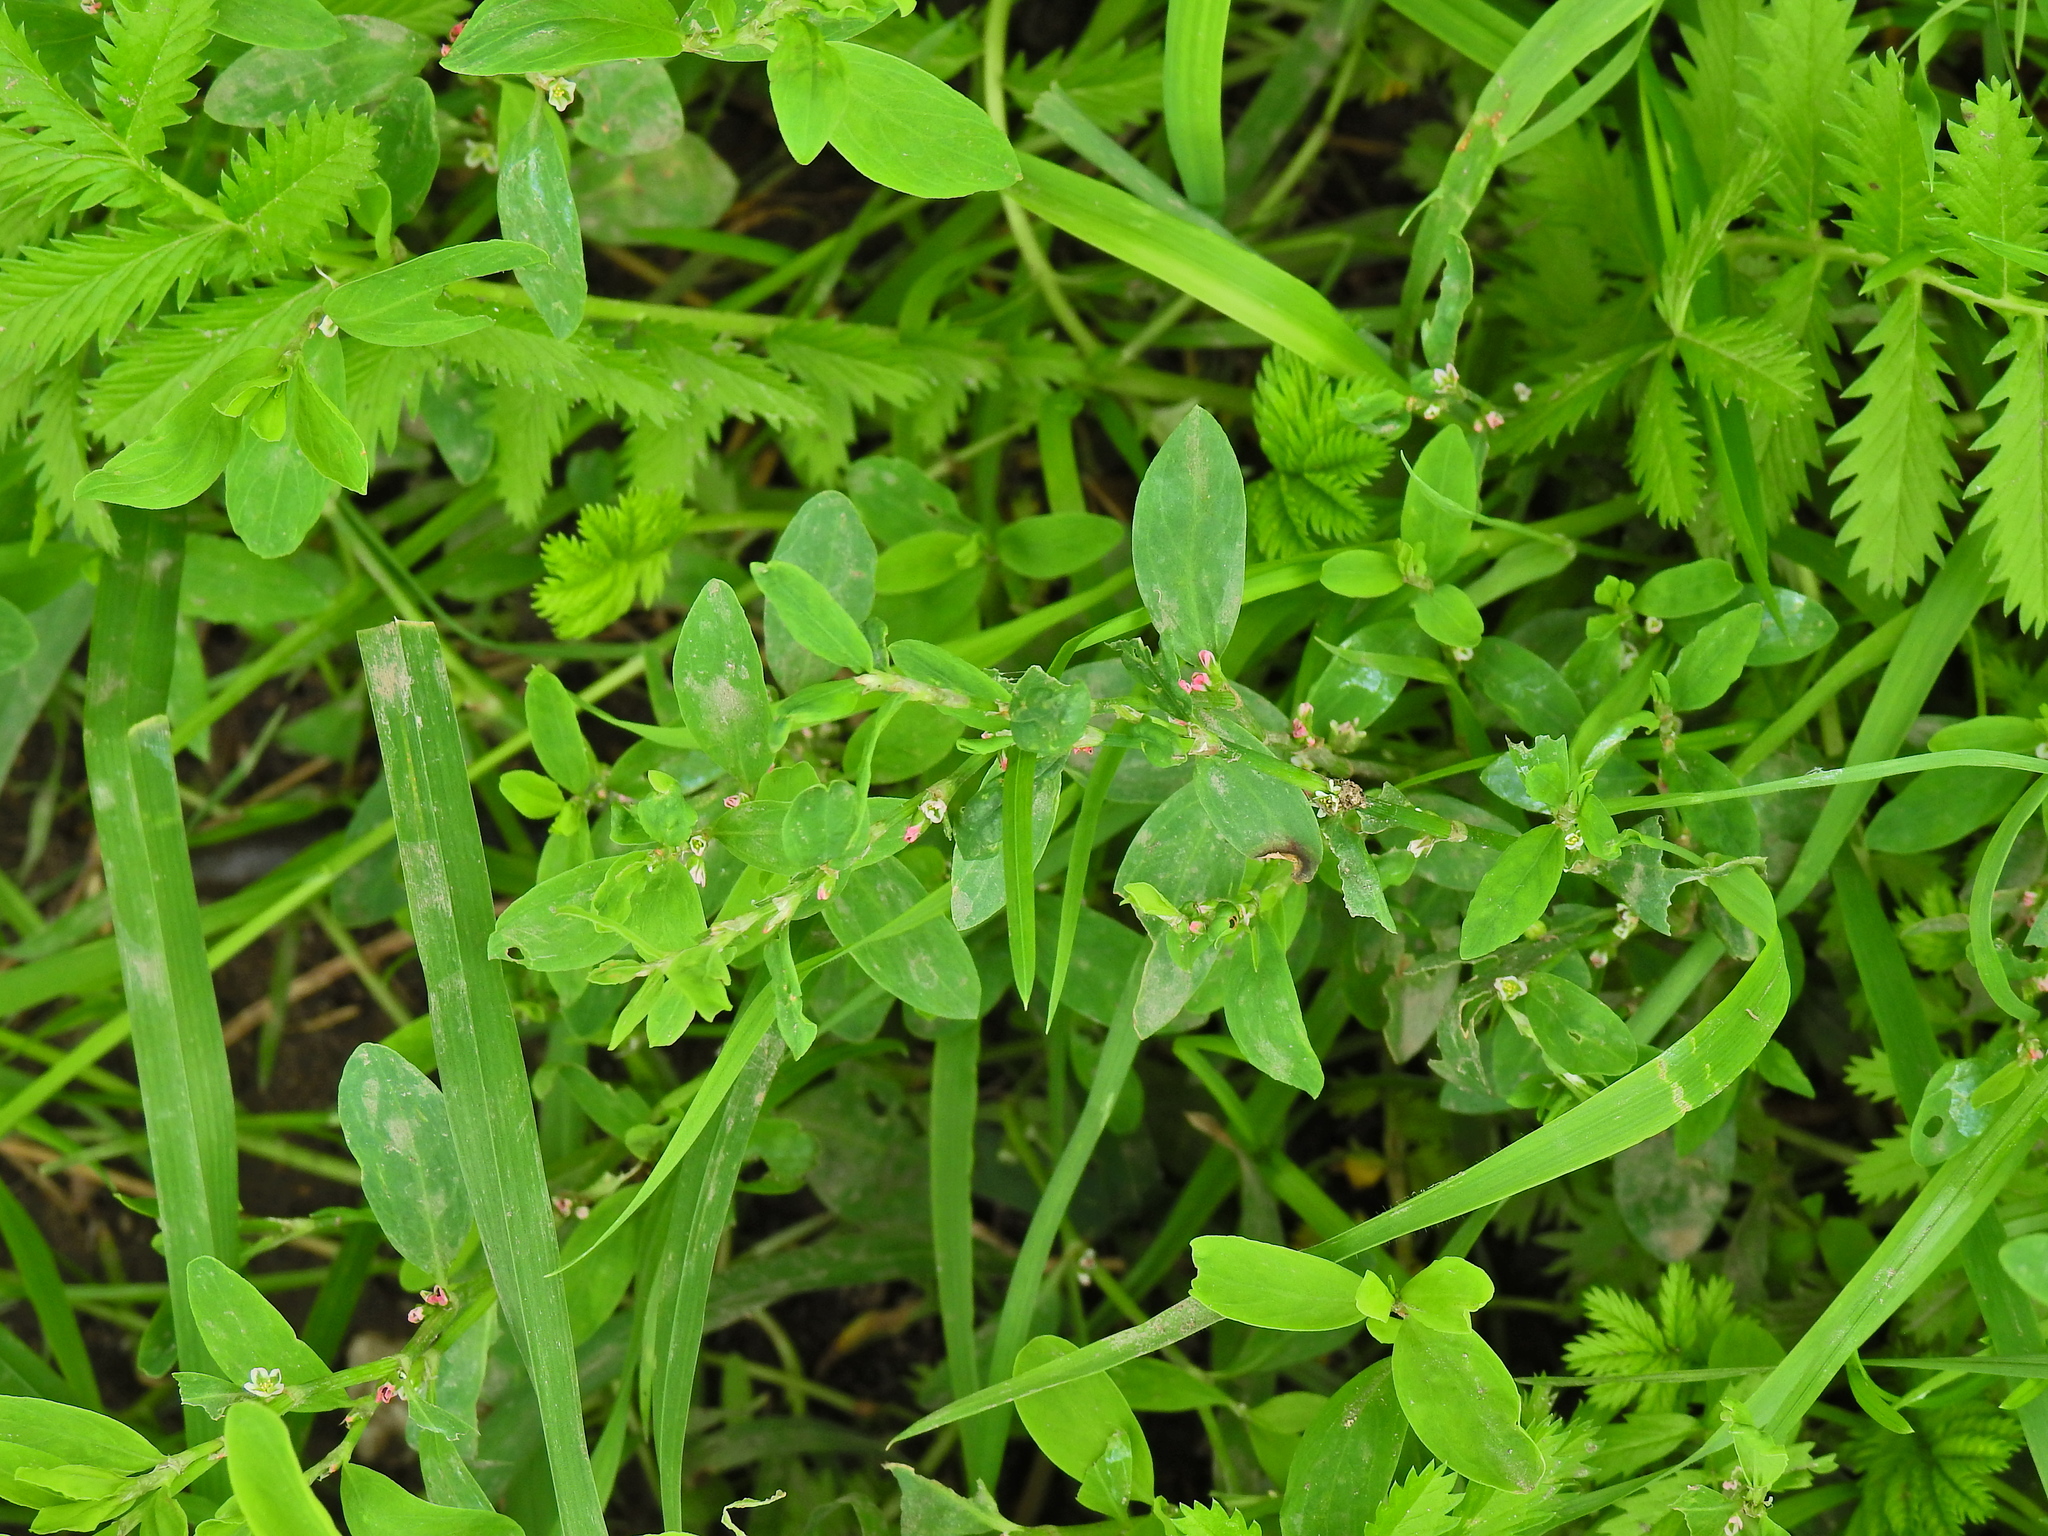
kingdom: Plantae
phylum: Tracheophyta
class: Magnoliopsida
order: Caryophyllales
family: Polygonaceae
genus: Polygonum
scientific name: Polygonum aviculare
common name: Prostrate knotweed
